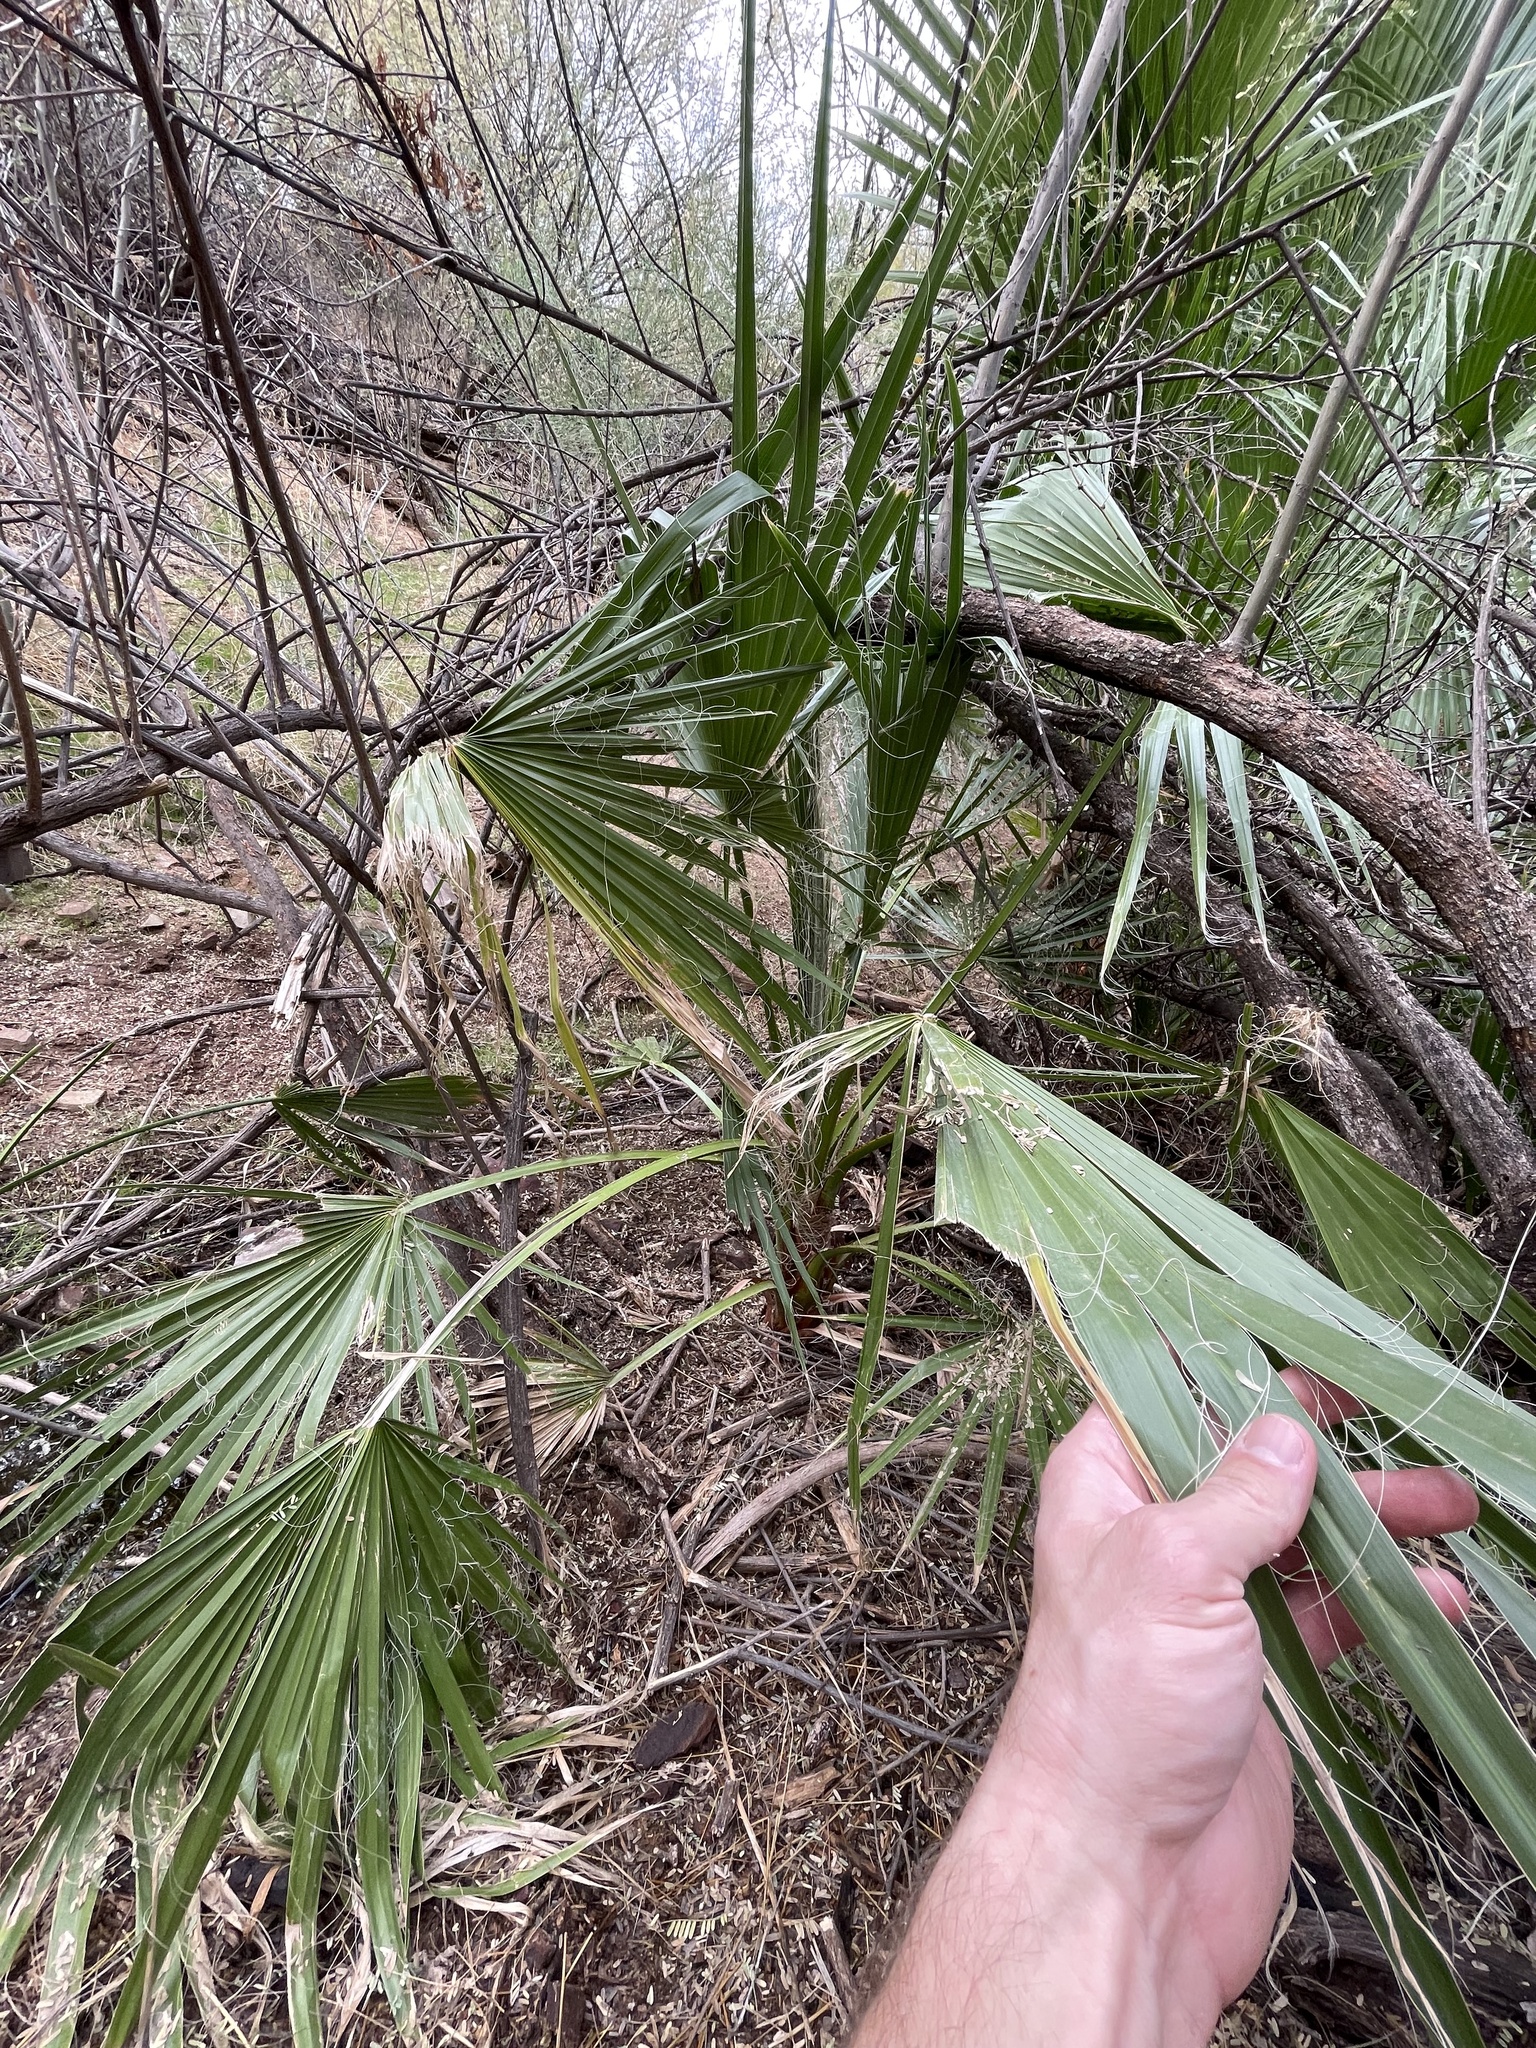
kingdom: Plantae
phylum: Tracheophyta
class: Liliopsida
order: Arecales
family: Arecaceae
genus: Washingtonia
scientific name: Washingtonia filifera
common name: California fan palm
